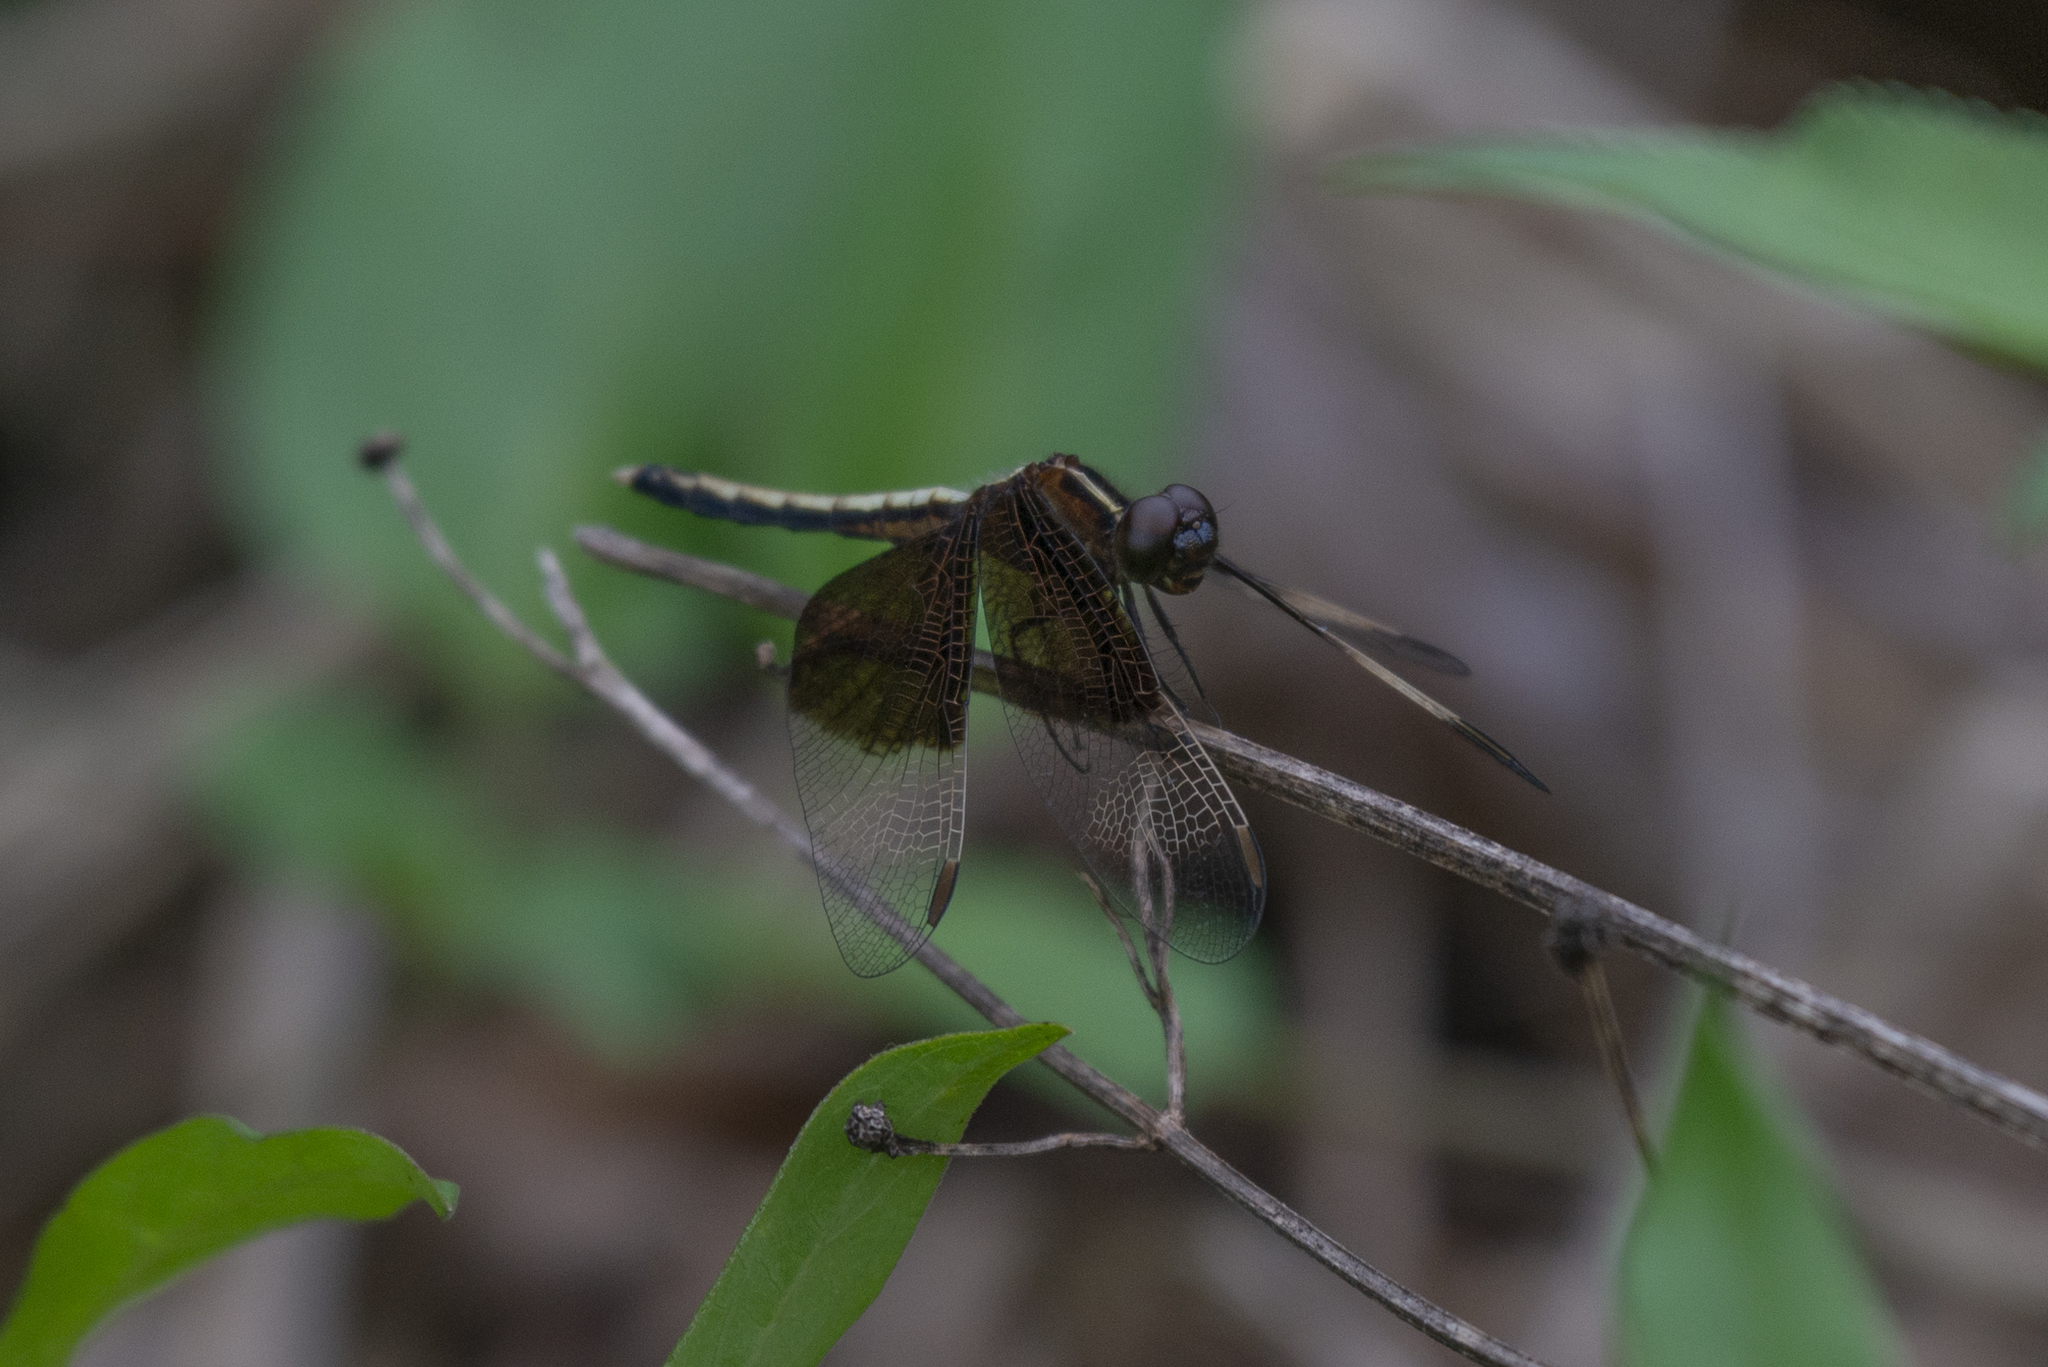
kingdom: Animalia
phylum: Arthropoda
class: Insecta
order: Odonata
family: Libellulidae
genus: Neurothemis
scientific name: Neurothemis tullia
